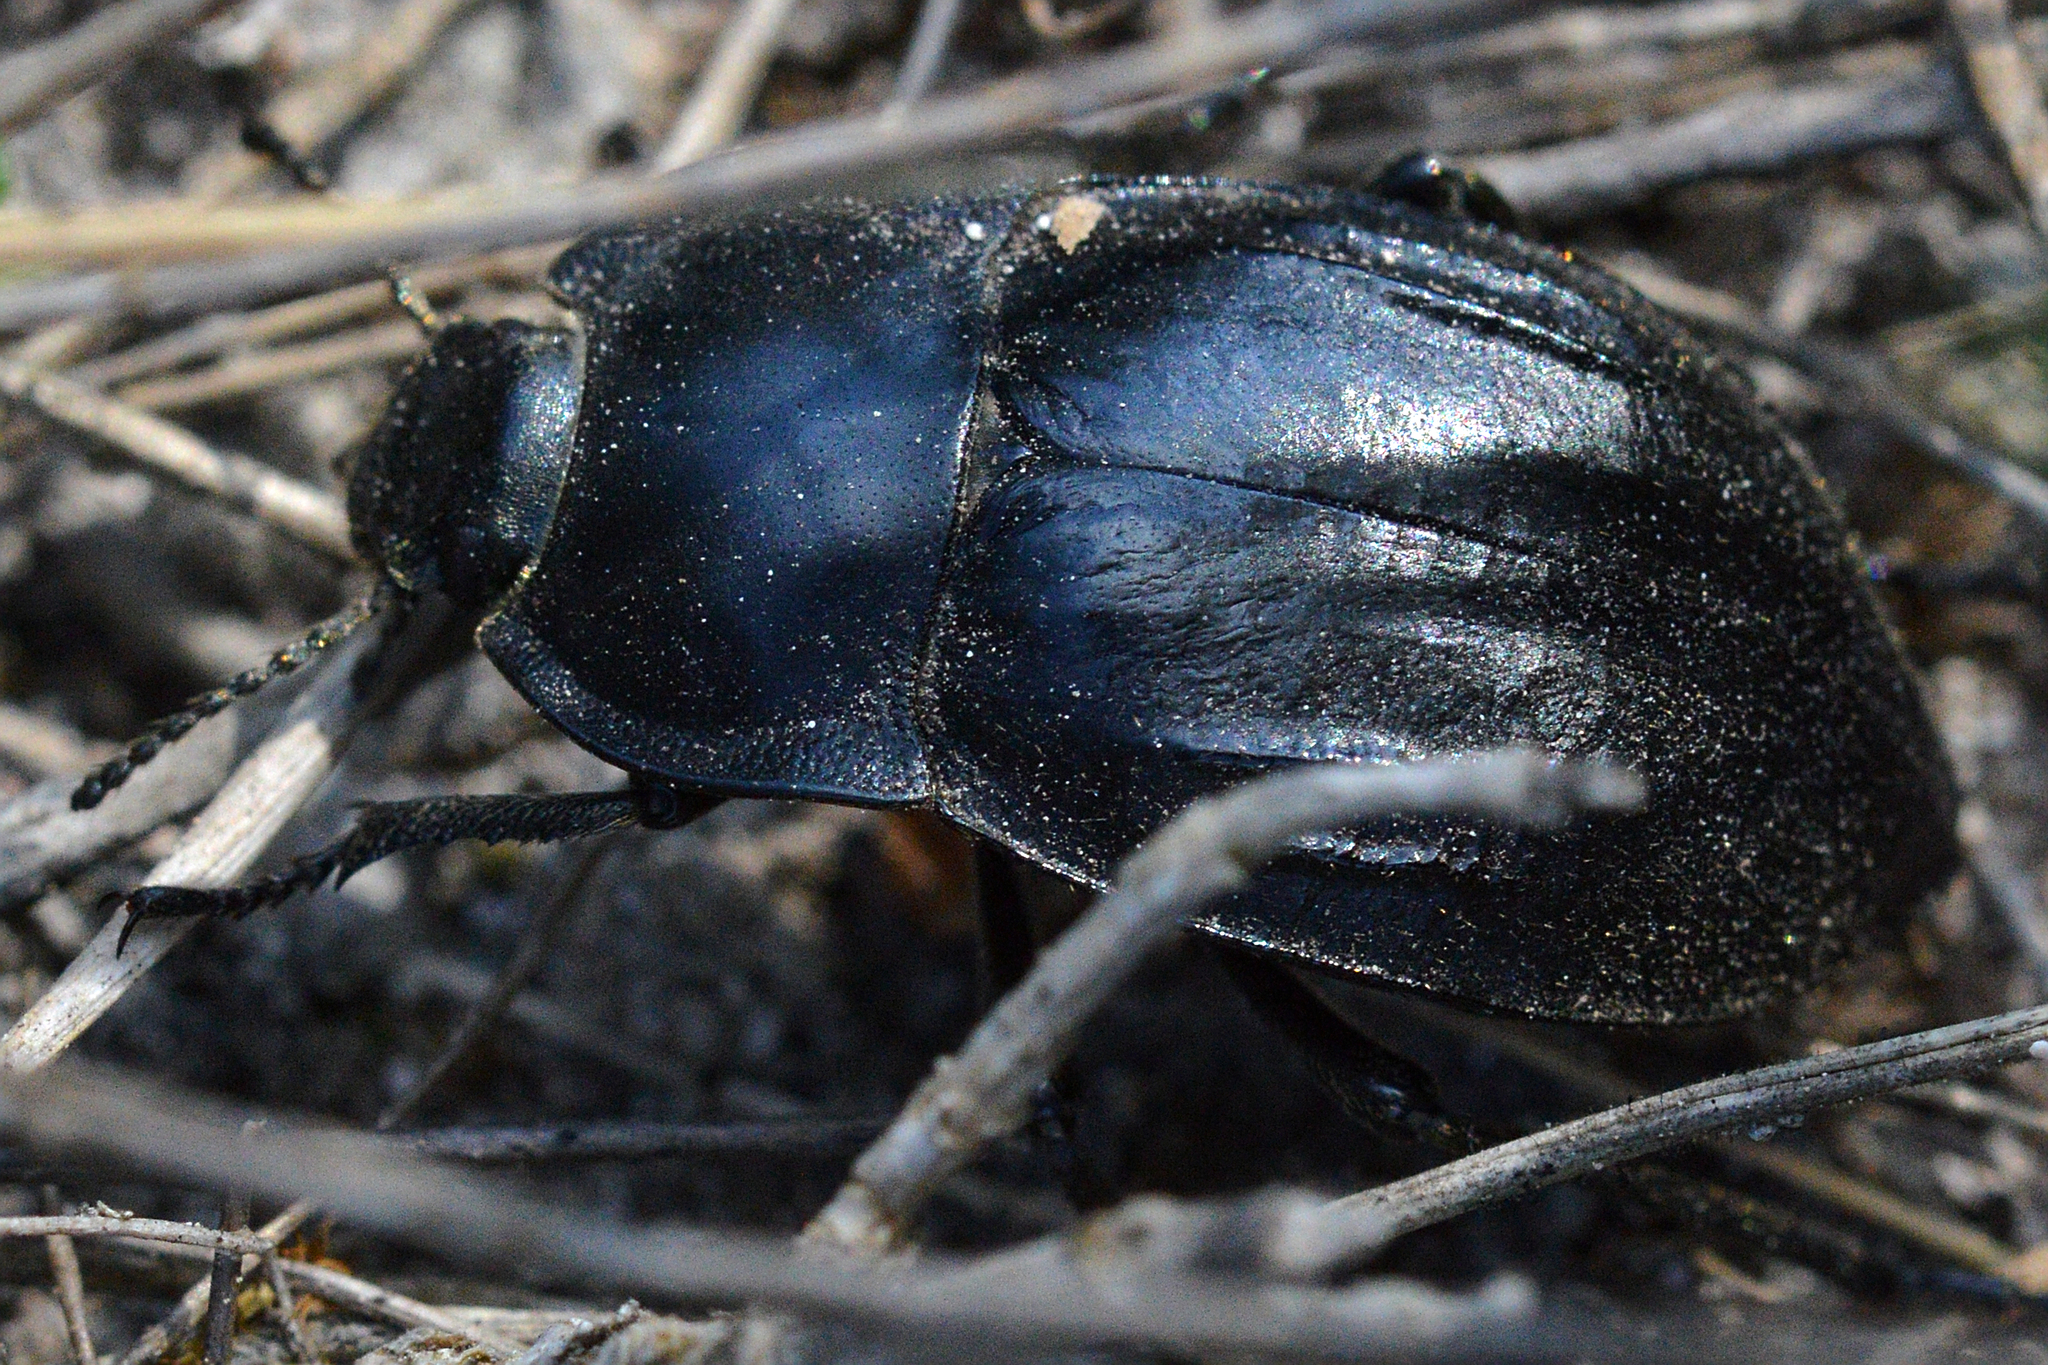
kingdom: Animalia
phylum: Arthropoda
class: Insecta
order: Coleoptera
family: Tenebrionidae
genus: Alphasida
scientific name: Alphasida depressa
